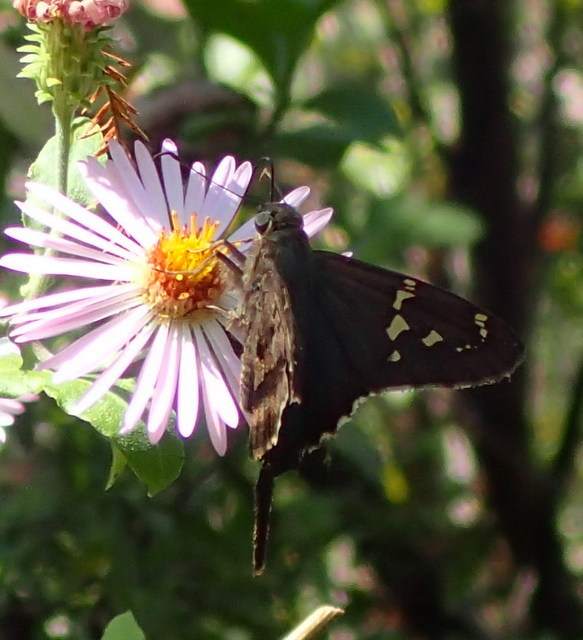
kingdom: Animalia
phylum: Arthropoda
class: Insecta
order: Lepidoptera
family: Hesperiidae
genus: Urbanus
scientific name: Urbanus proteus
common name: Long-tailed skipper
